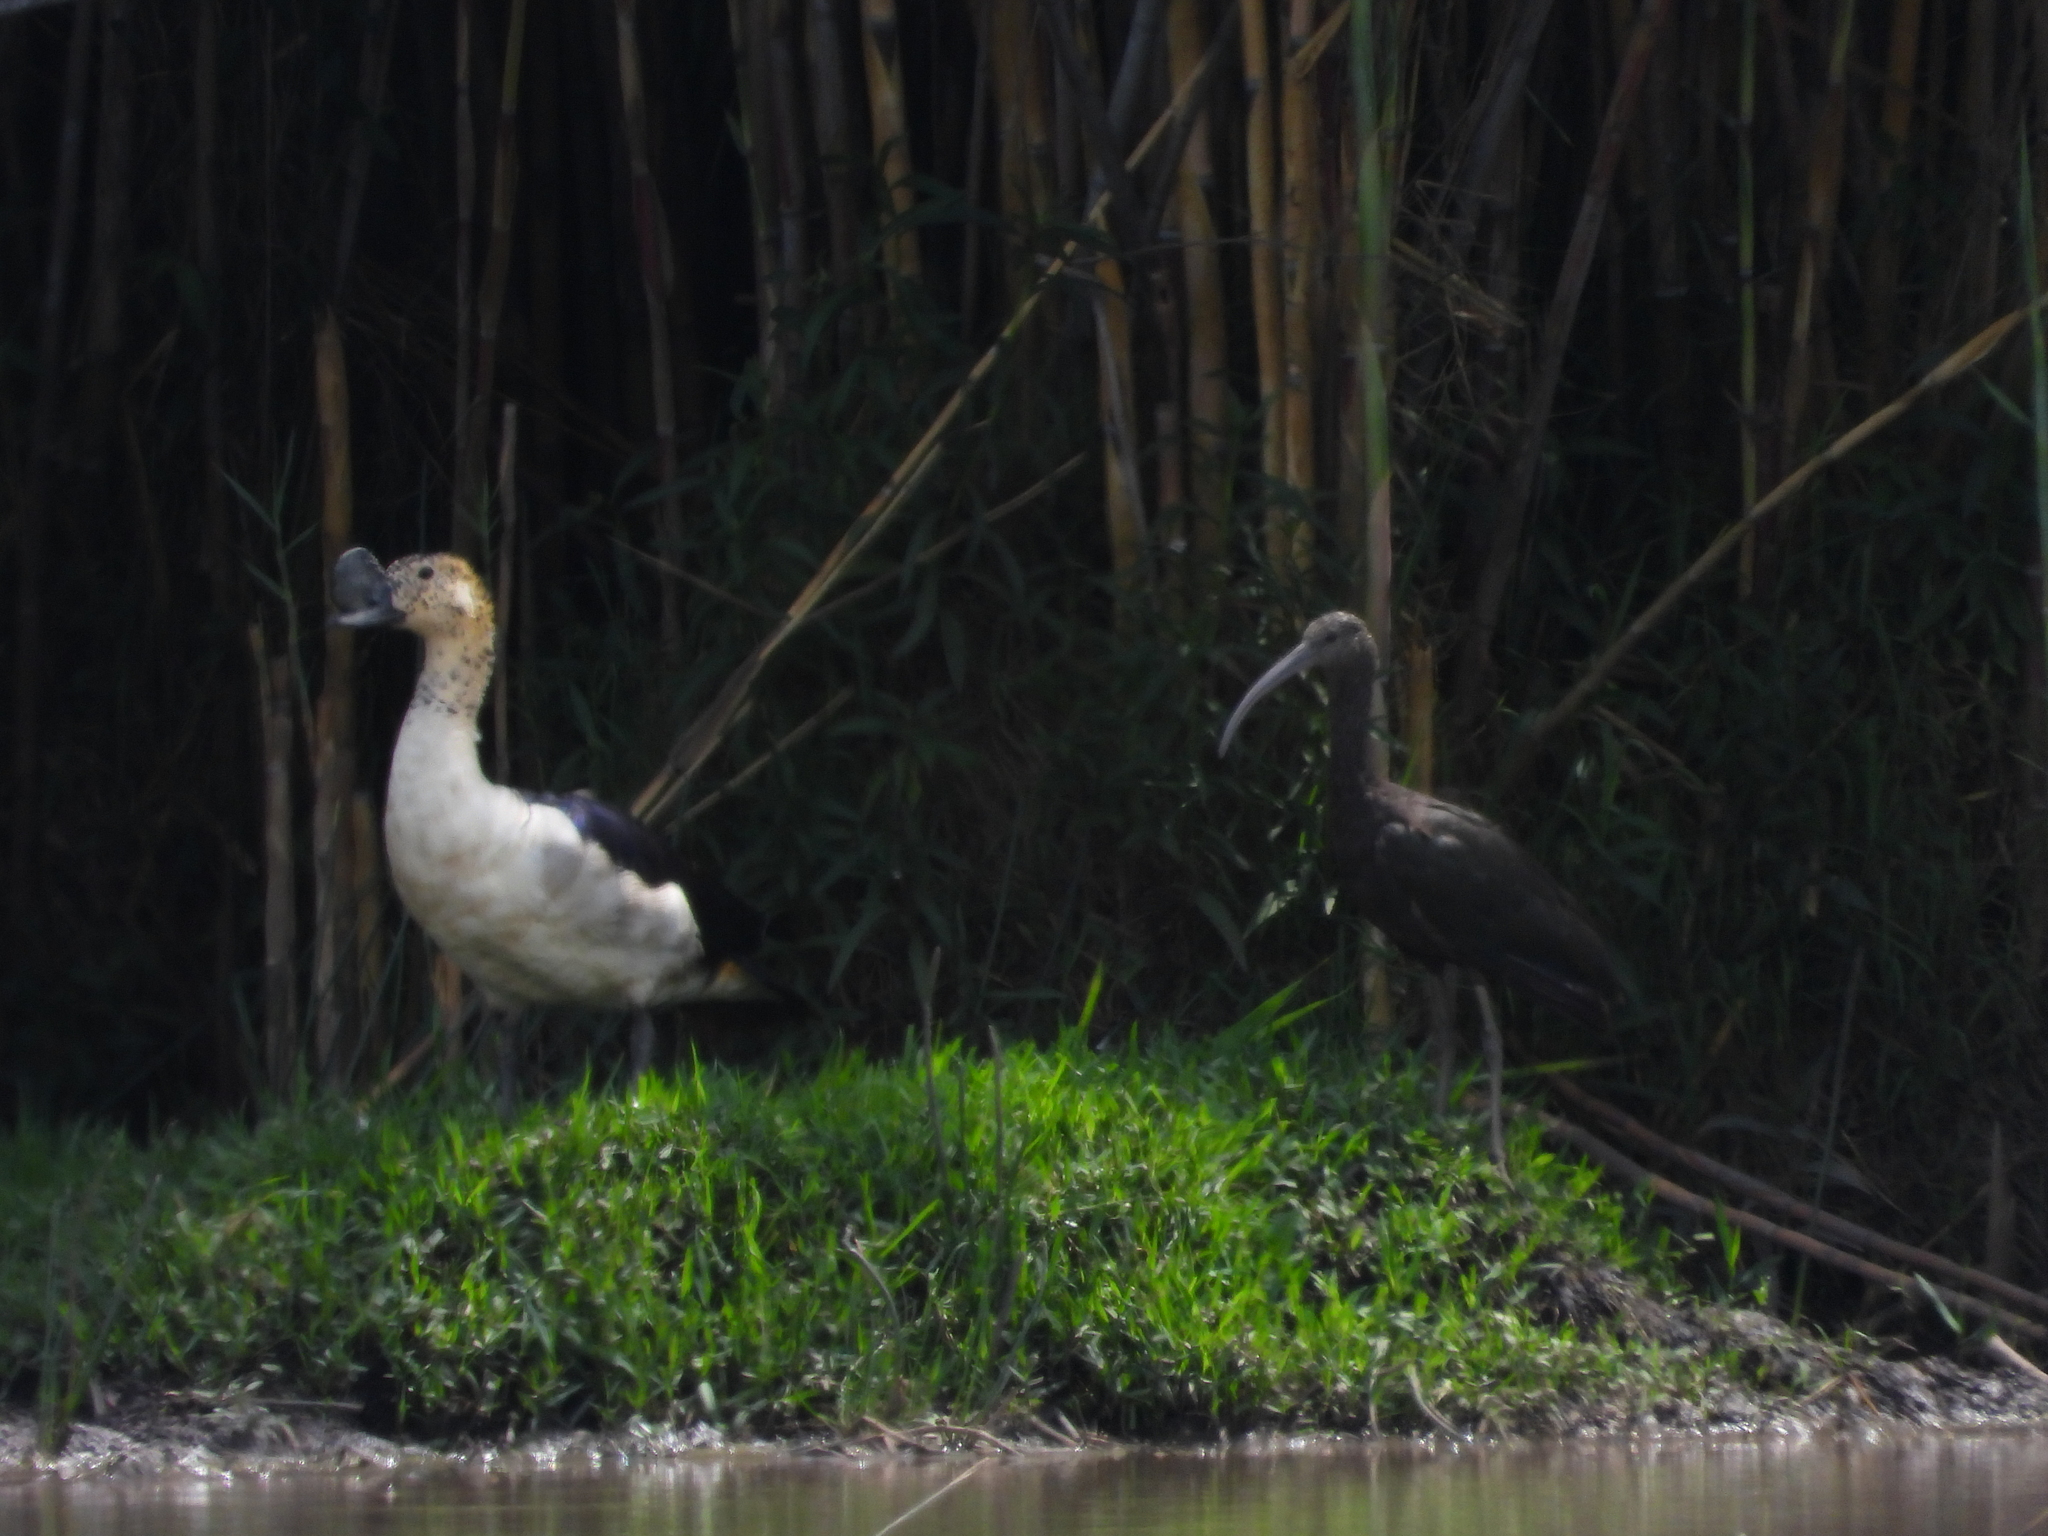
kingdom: Animalia
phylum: Chordata
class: Aves
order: Pelecaniformes
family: Threskiornithidae
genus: Plegadis
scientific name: Plegadis falcinellus
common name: Glossy ibis
